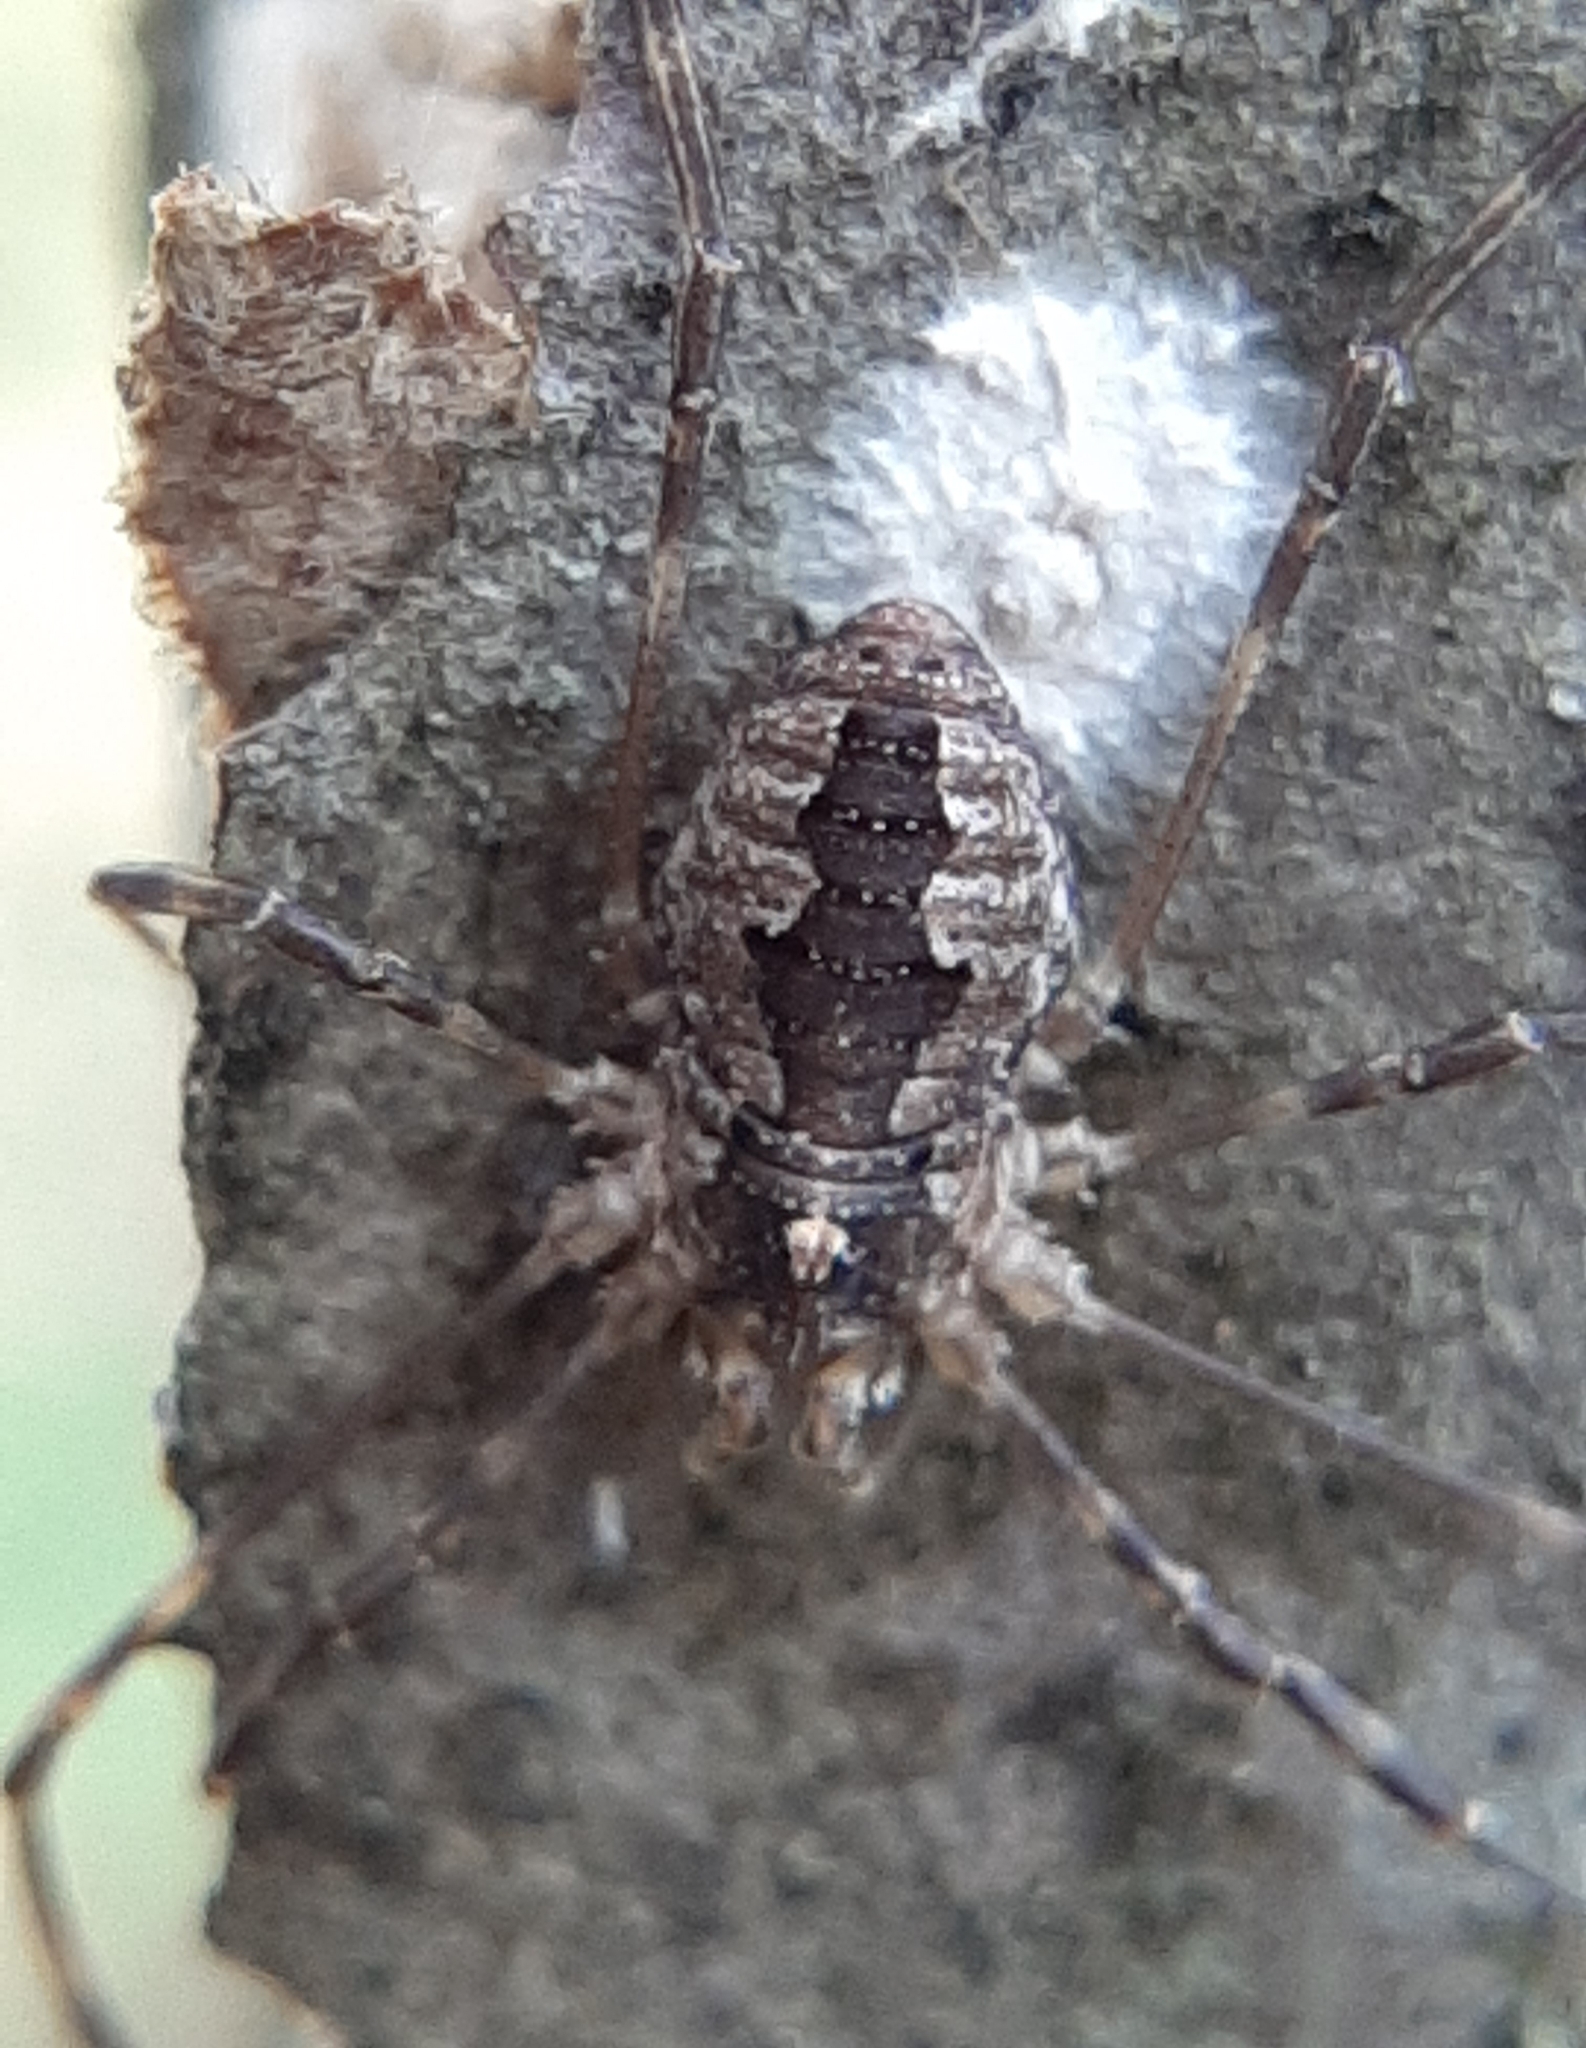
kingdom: Animalia
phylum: Arthropoda
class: Arachnida
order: Opiliones
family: Phalangiidae
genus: Odiellus
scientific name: Odiellus pictus
